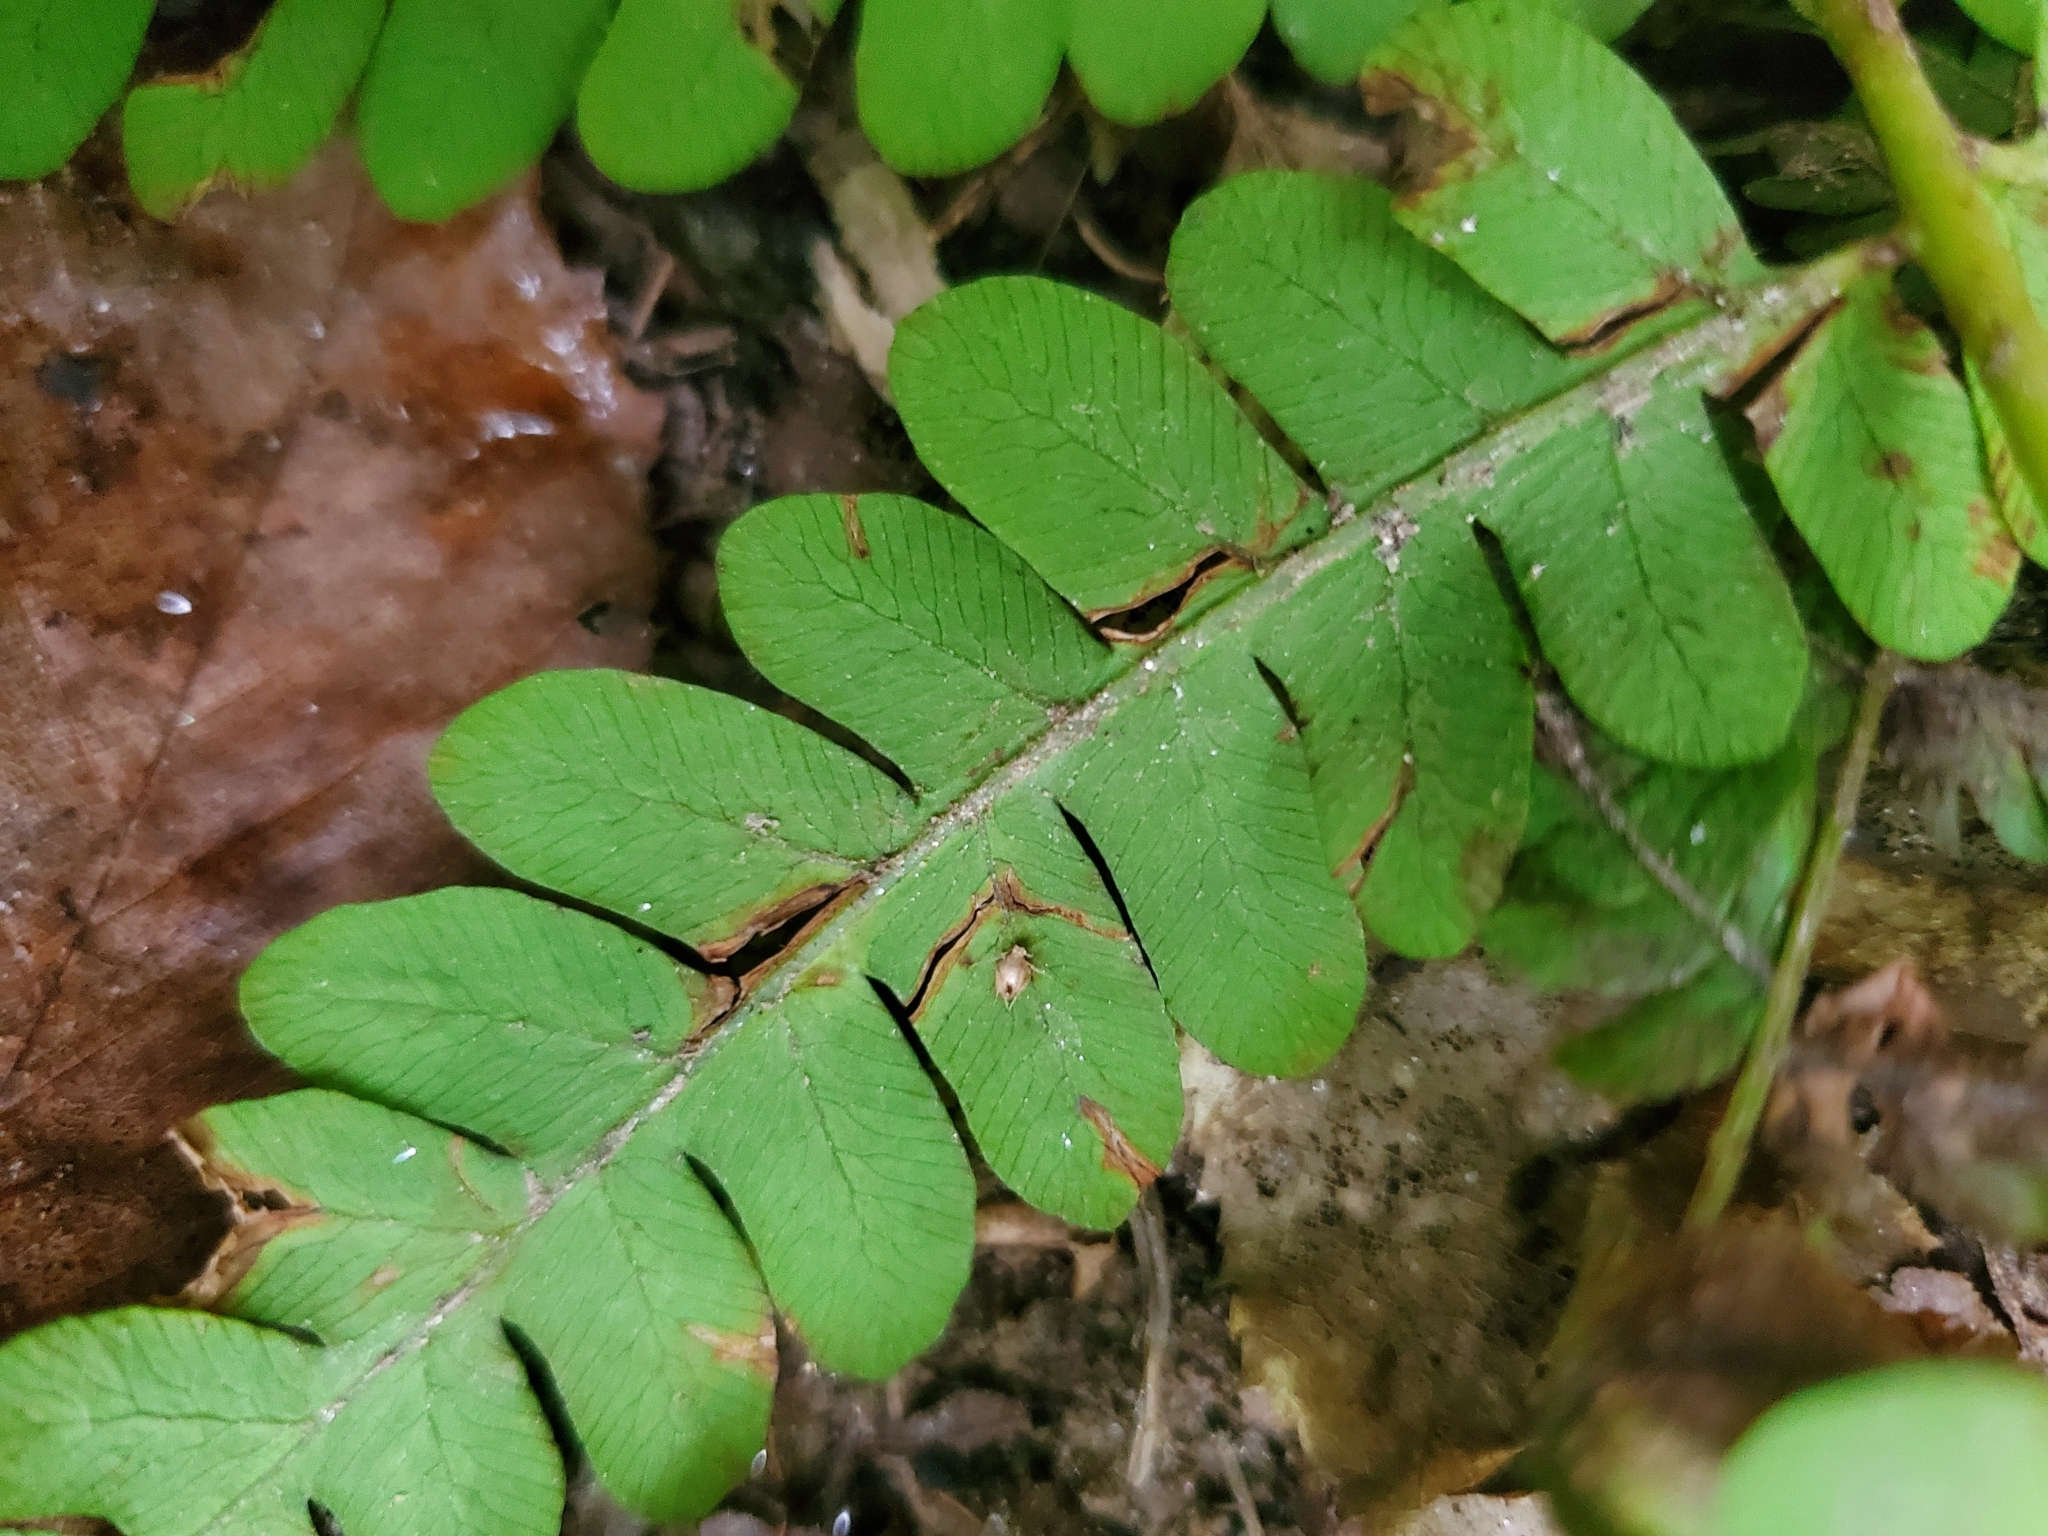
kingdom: Plantae
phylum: Tracheophyta
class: Polypodiopsida
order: Osmundales
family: Osmundaceae
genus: Claytosmunda
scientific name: Claytosmunda claytoniana
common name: Clayton's fern
